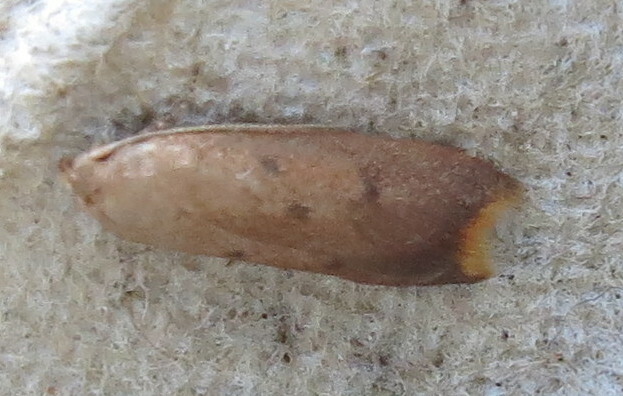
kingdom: Animalia
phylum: Arthropoda
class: Insecta
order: Lepidoptera
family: Oecophoridae
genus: Tachystola
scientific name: Tachystola acroxantha
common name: Ruddy streak
